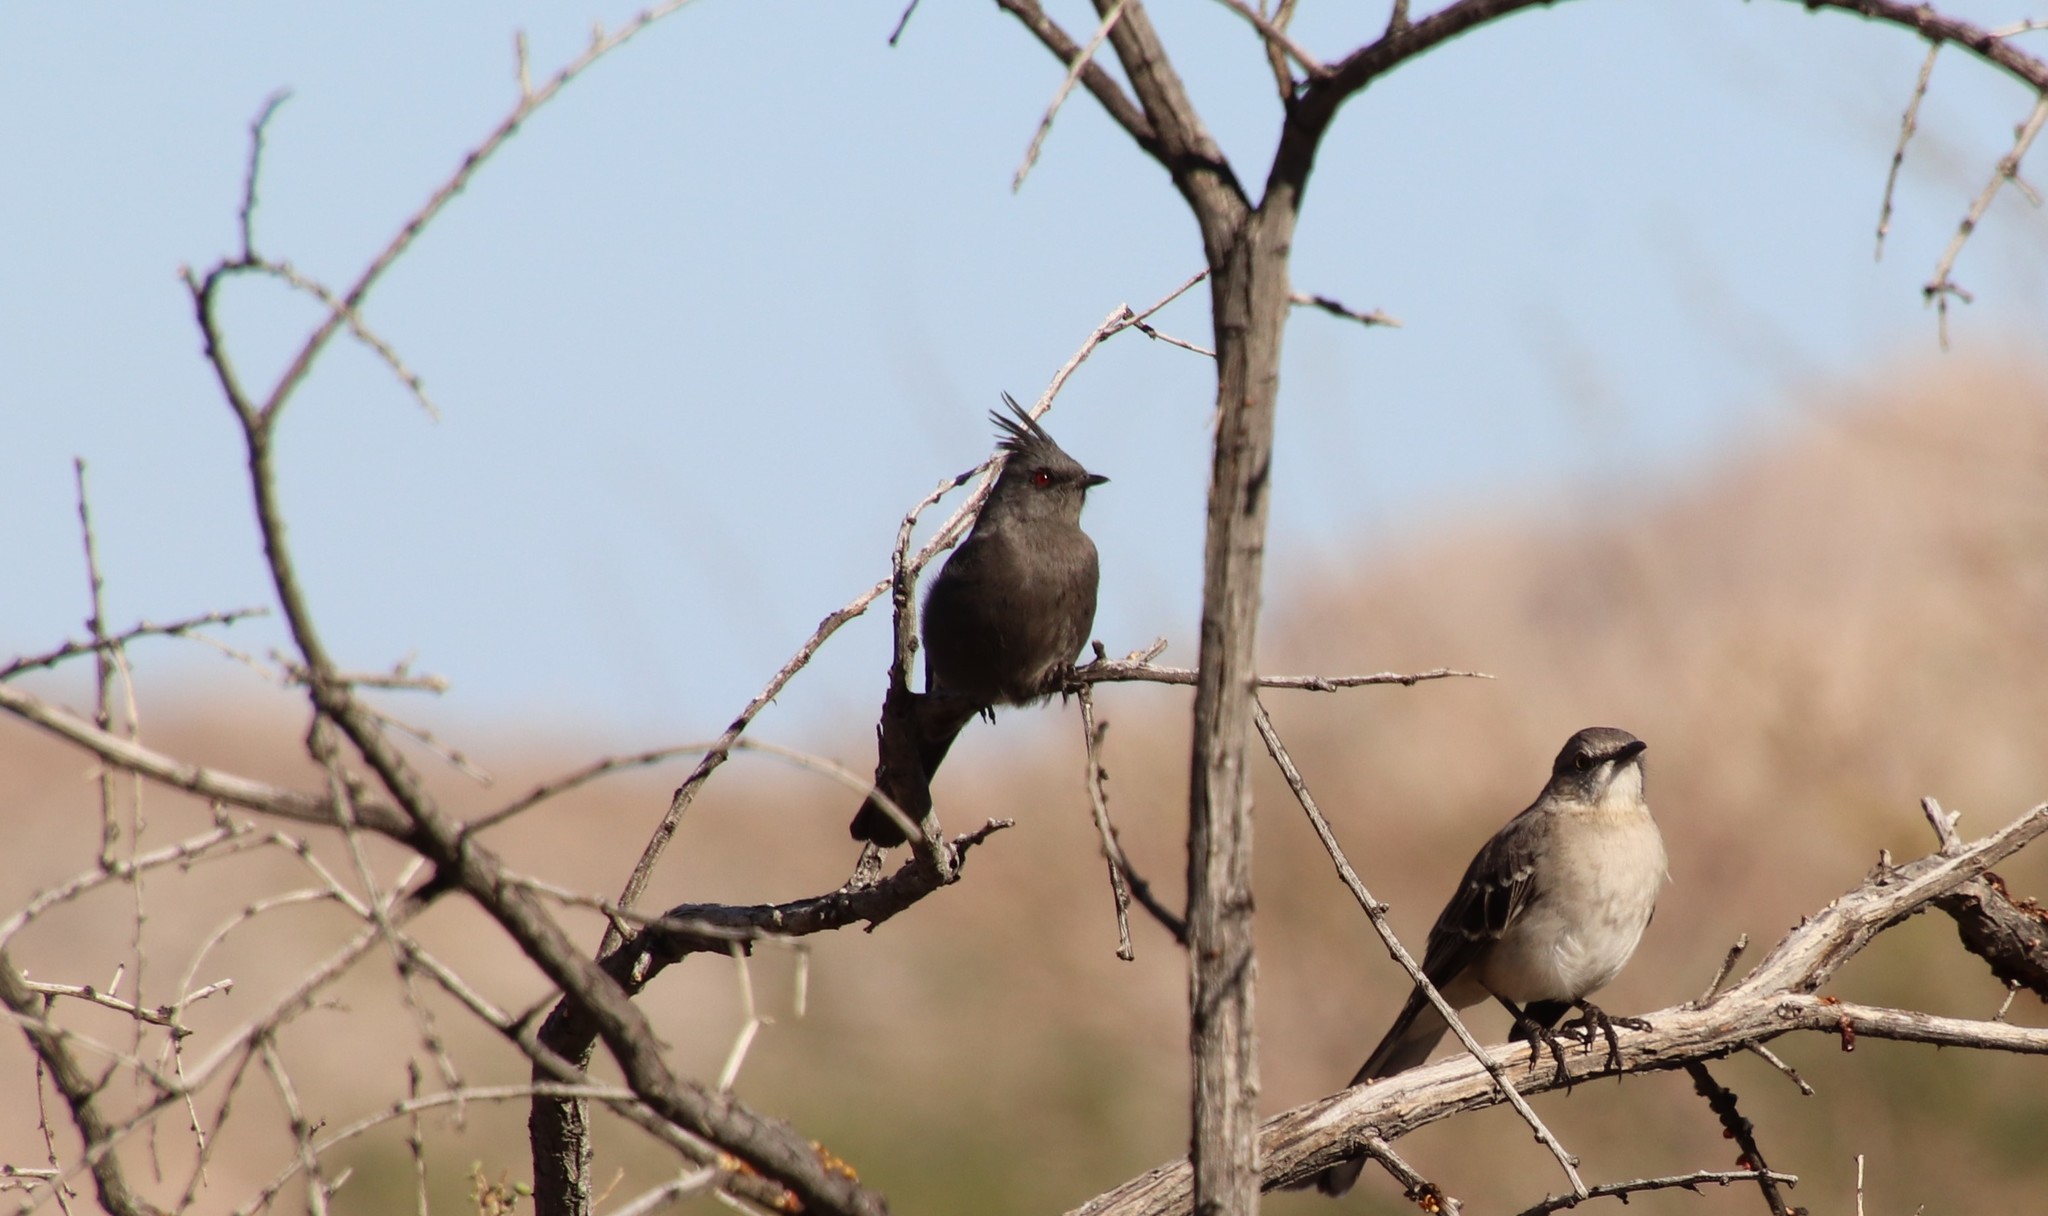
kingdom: Animalia
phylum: Chordata
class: Aves
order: Passeriformes
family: Ptilogonatidae
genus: Phainopepla
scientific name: Phainopepla nitens
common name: Phainopepla
